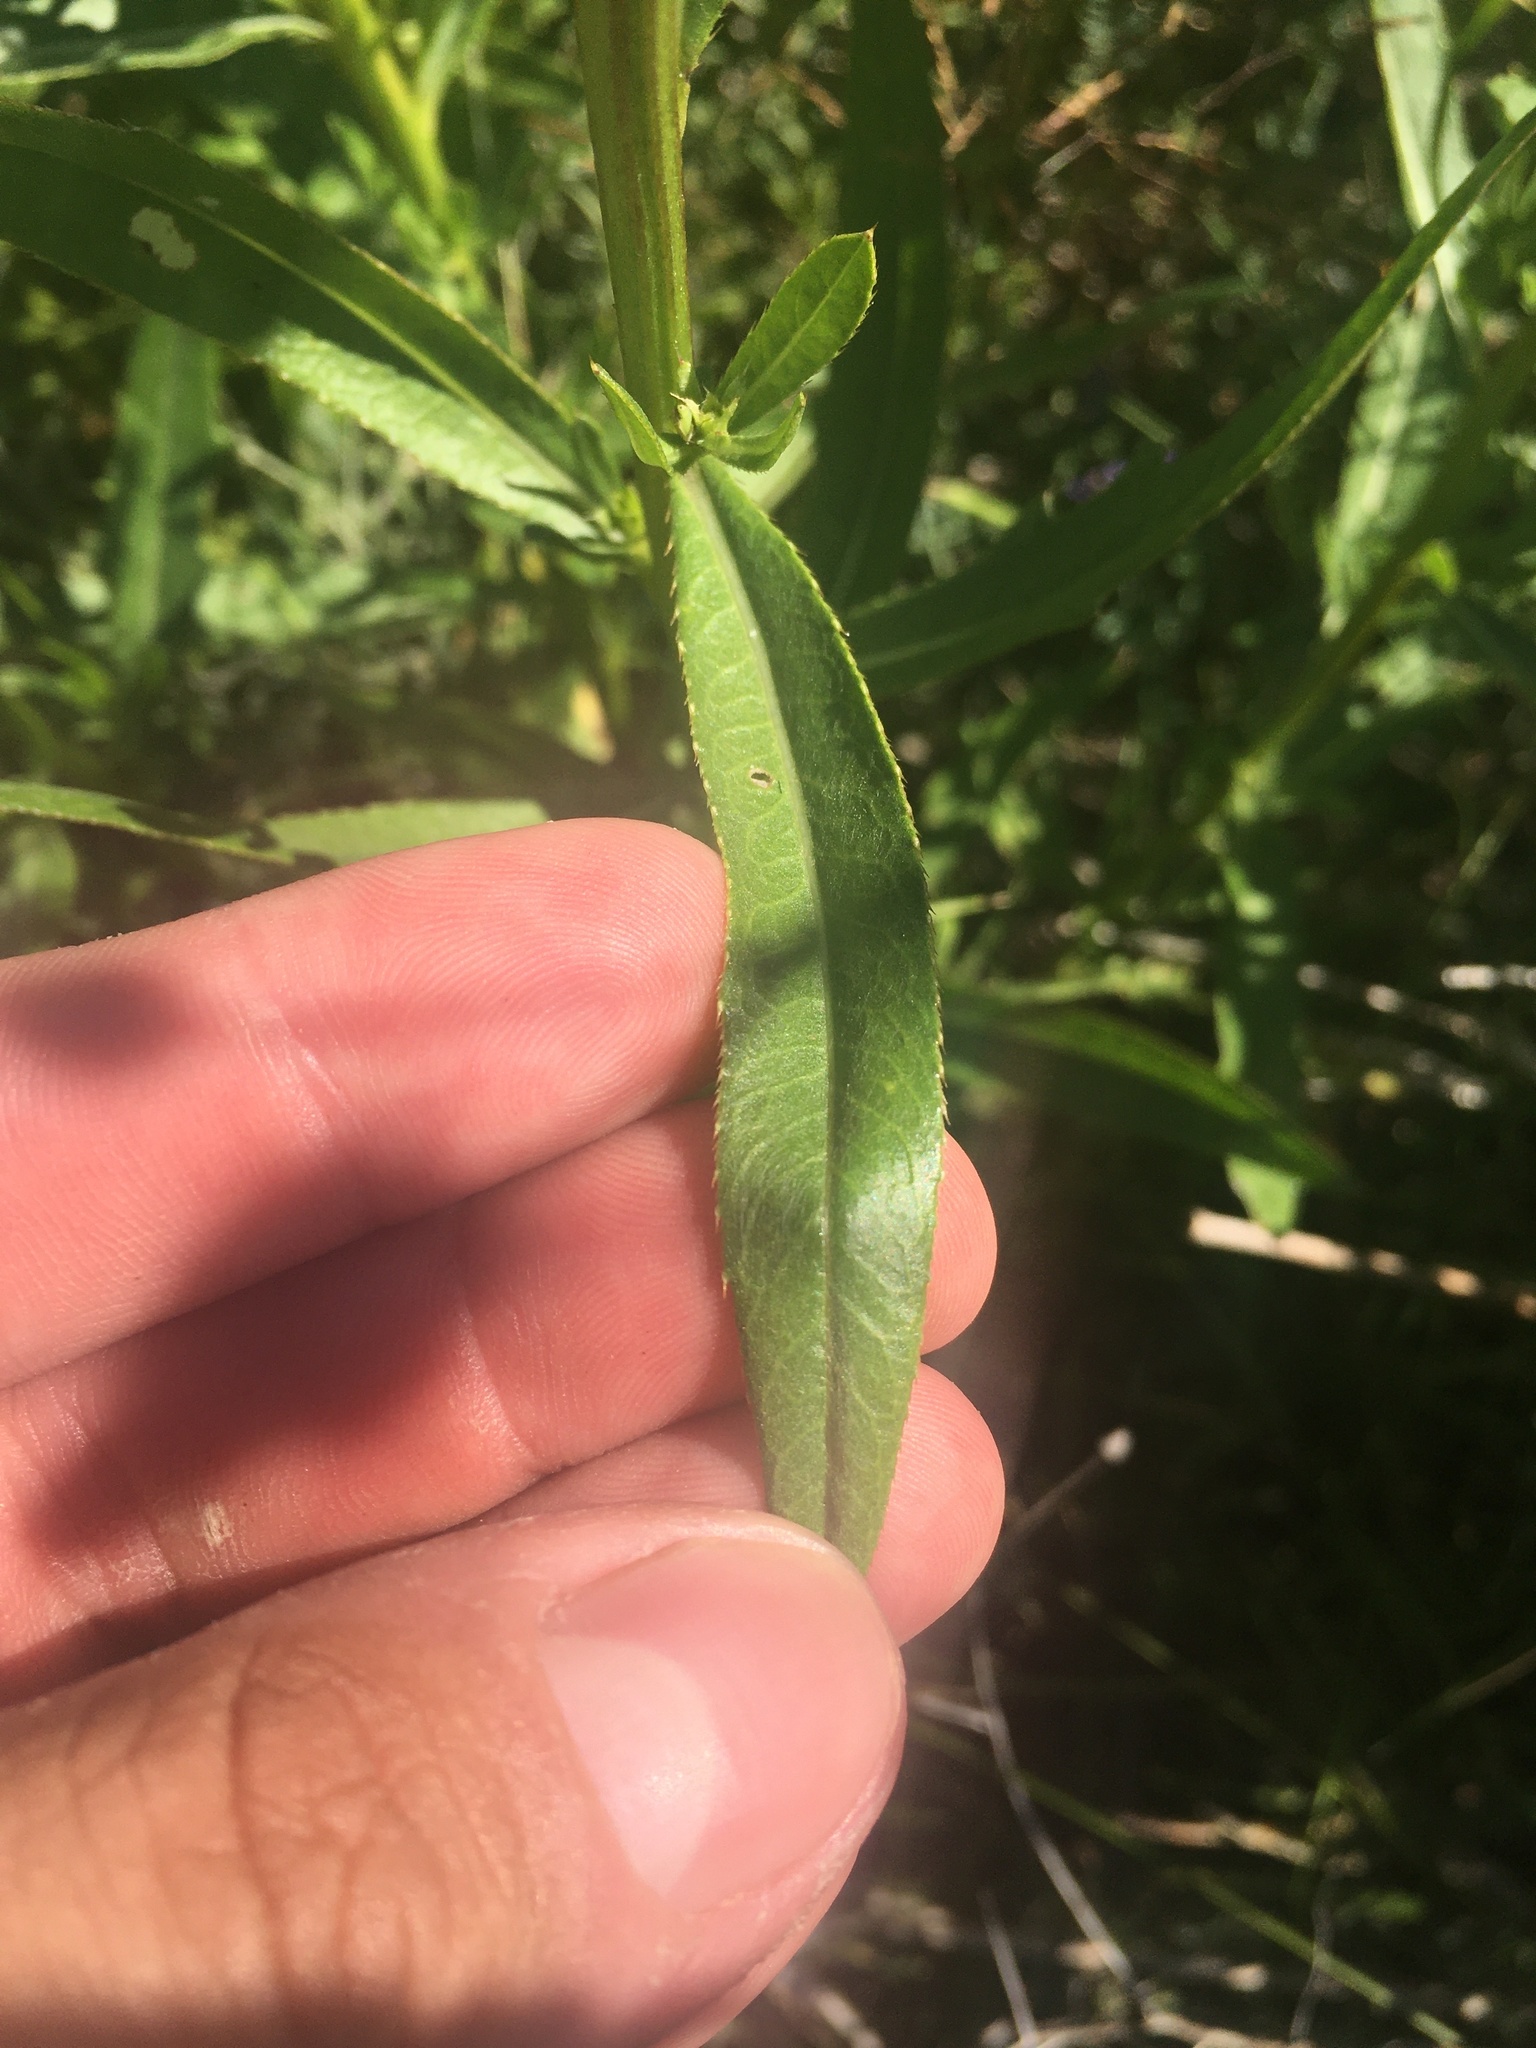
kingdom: Plantae
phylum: Tracheophyta
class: Magnoliopsida
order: Asterales
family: Asteraceae
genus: Cirsium
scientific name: Cirsium arvense
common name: Creeping thistle
